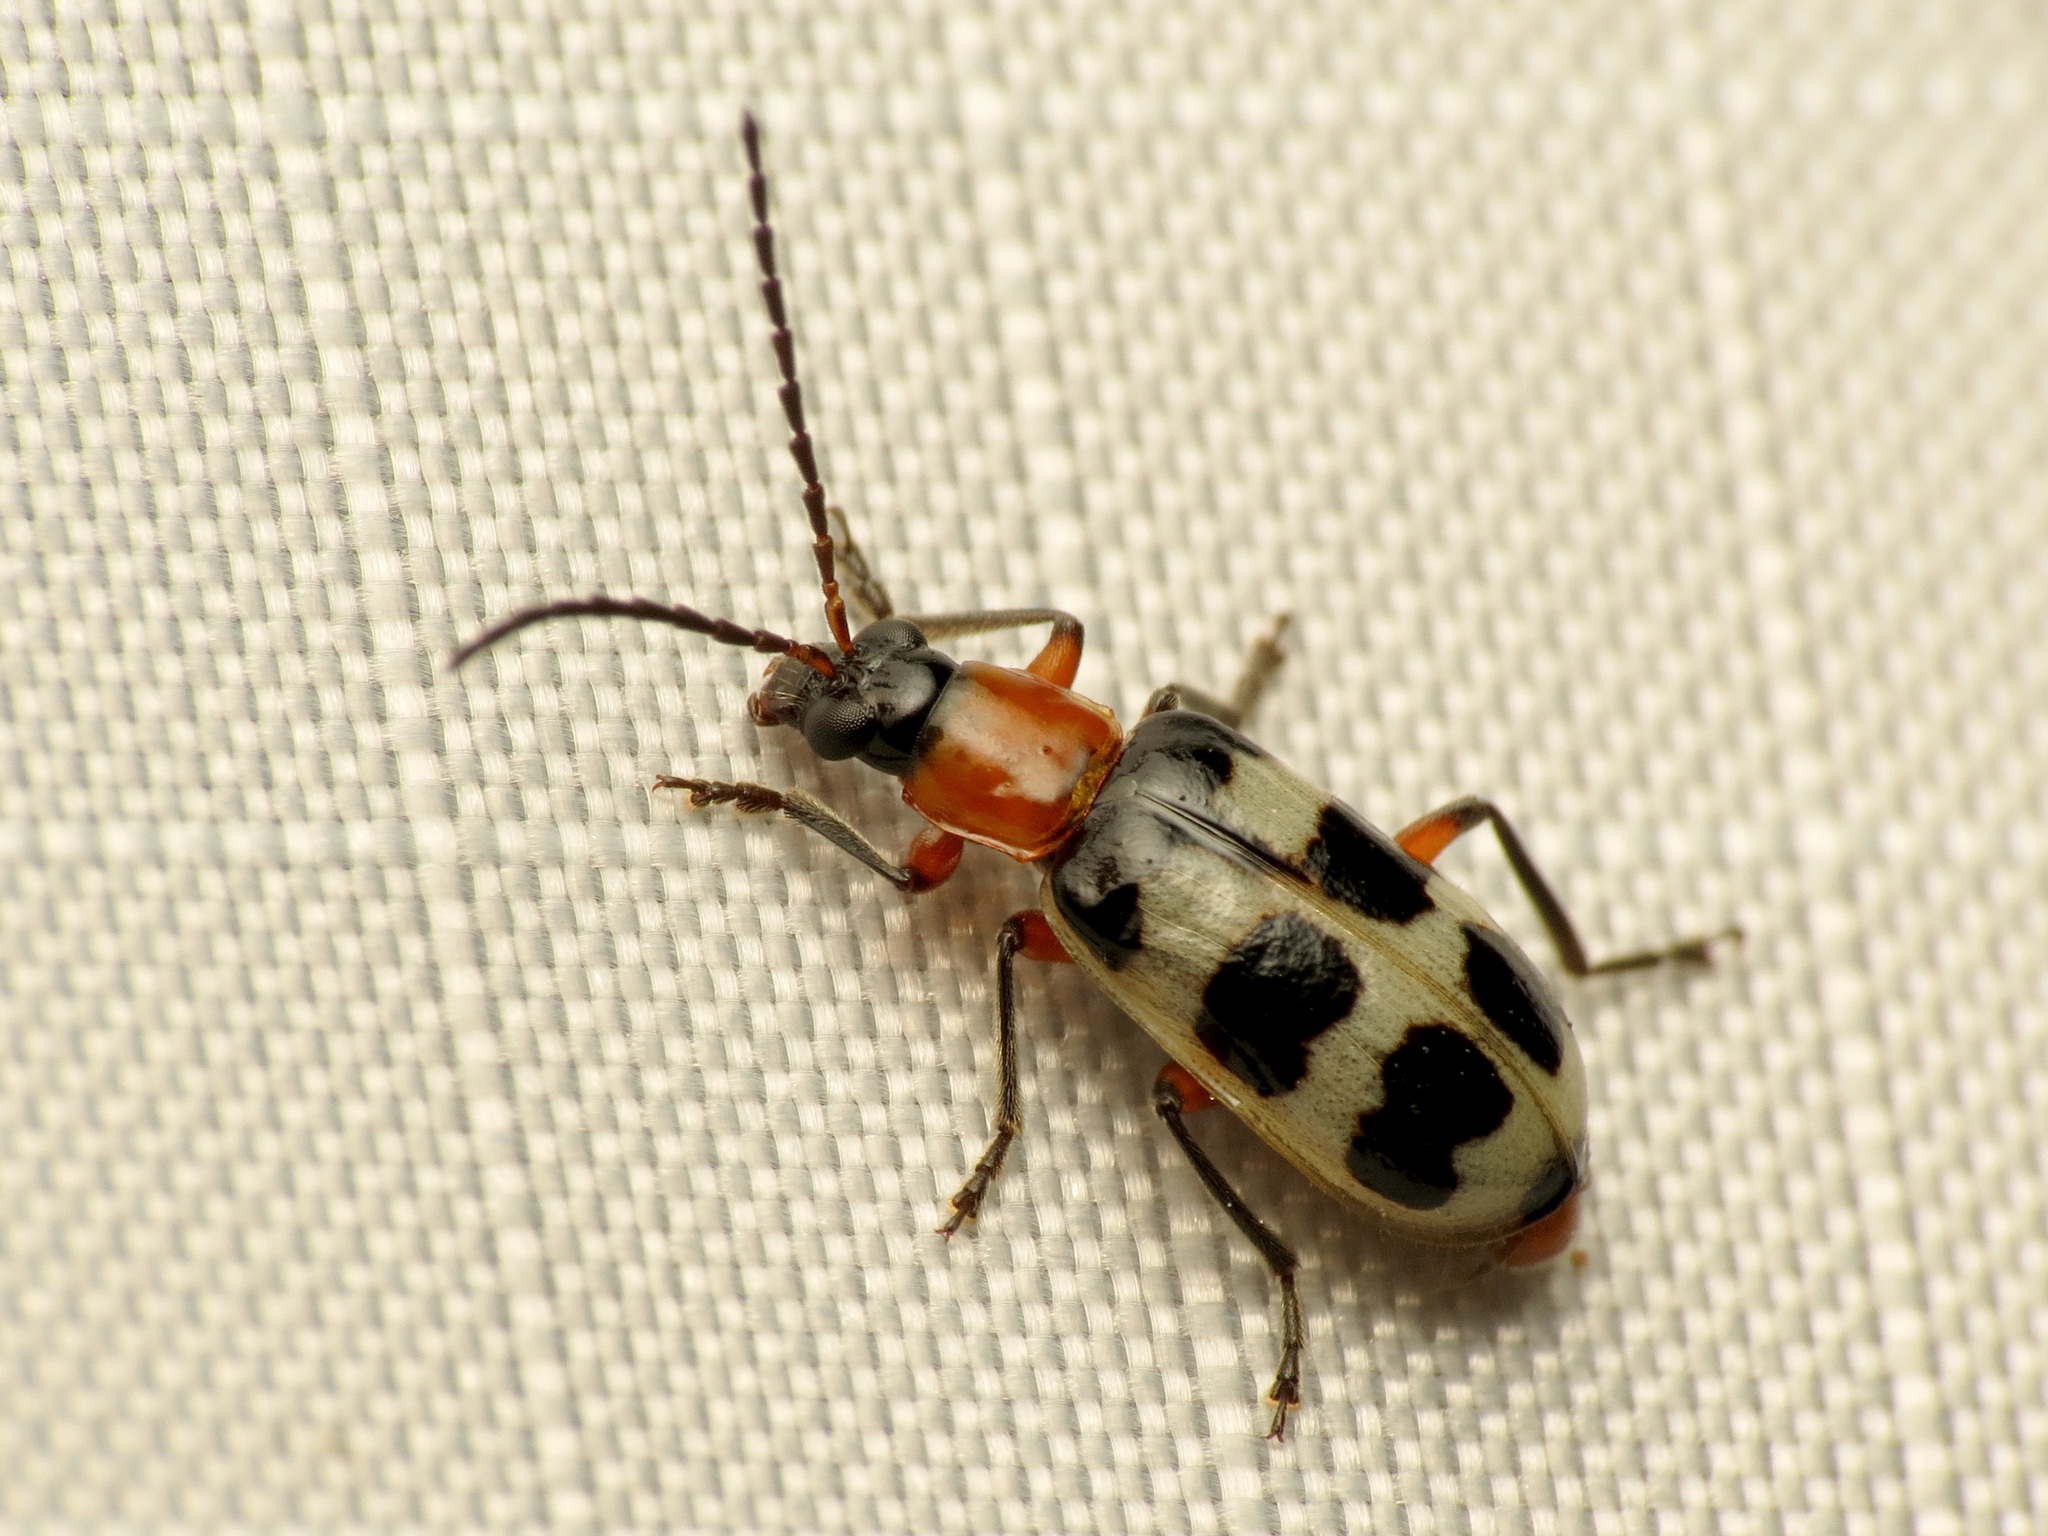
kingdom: Animalia
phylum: Arthropoda
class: Insecta
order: Coleoptera
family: Chrysomelidae
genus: Paranapiacaba
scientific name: Paranapiacaba tricincta
